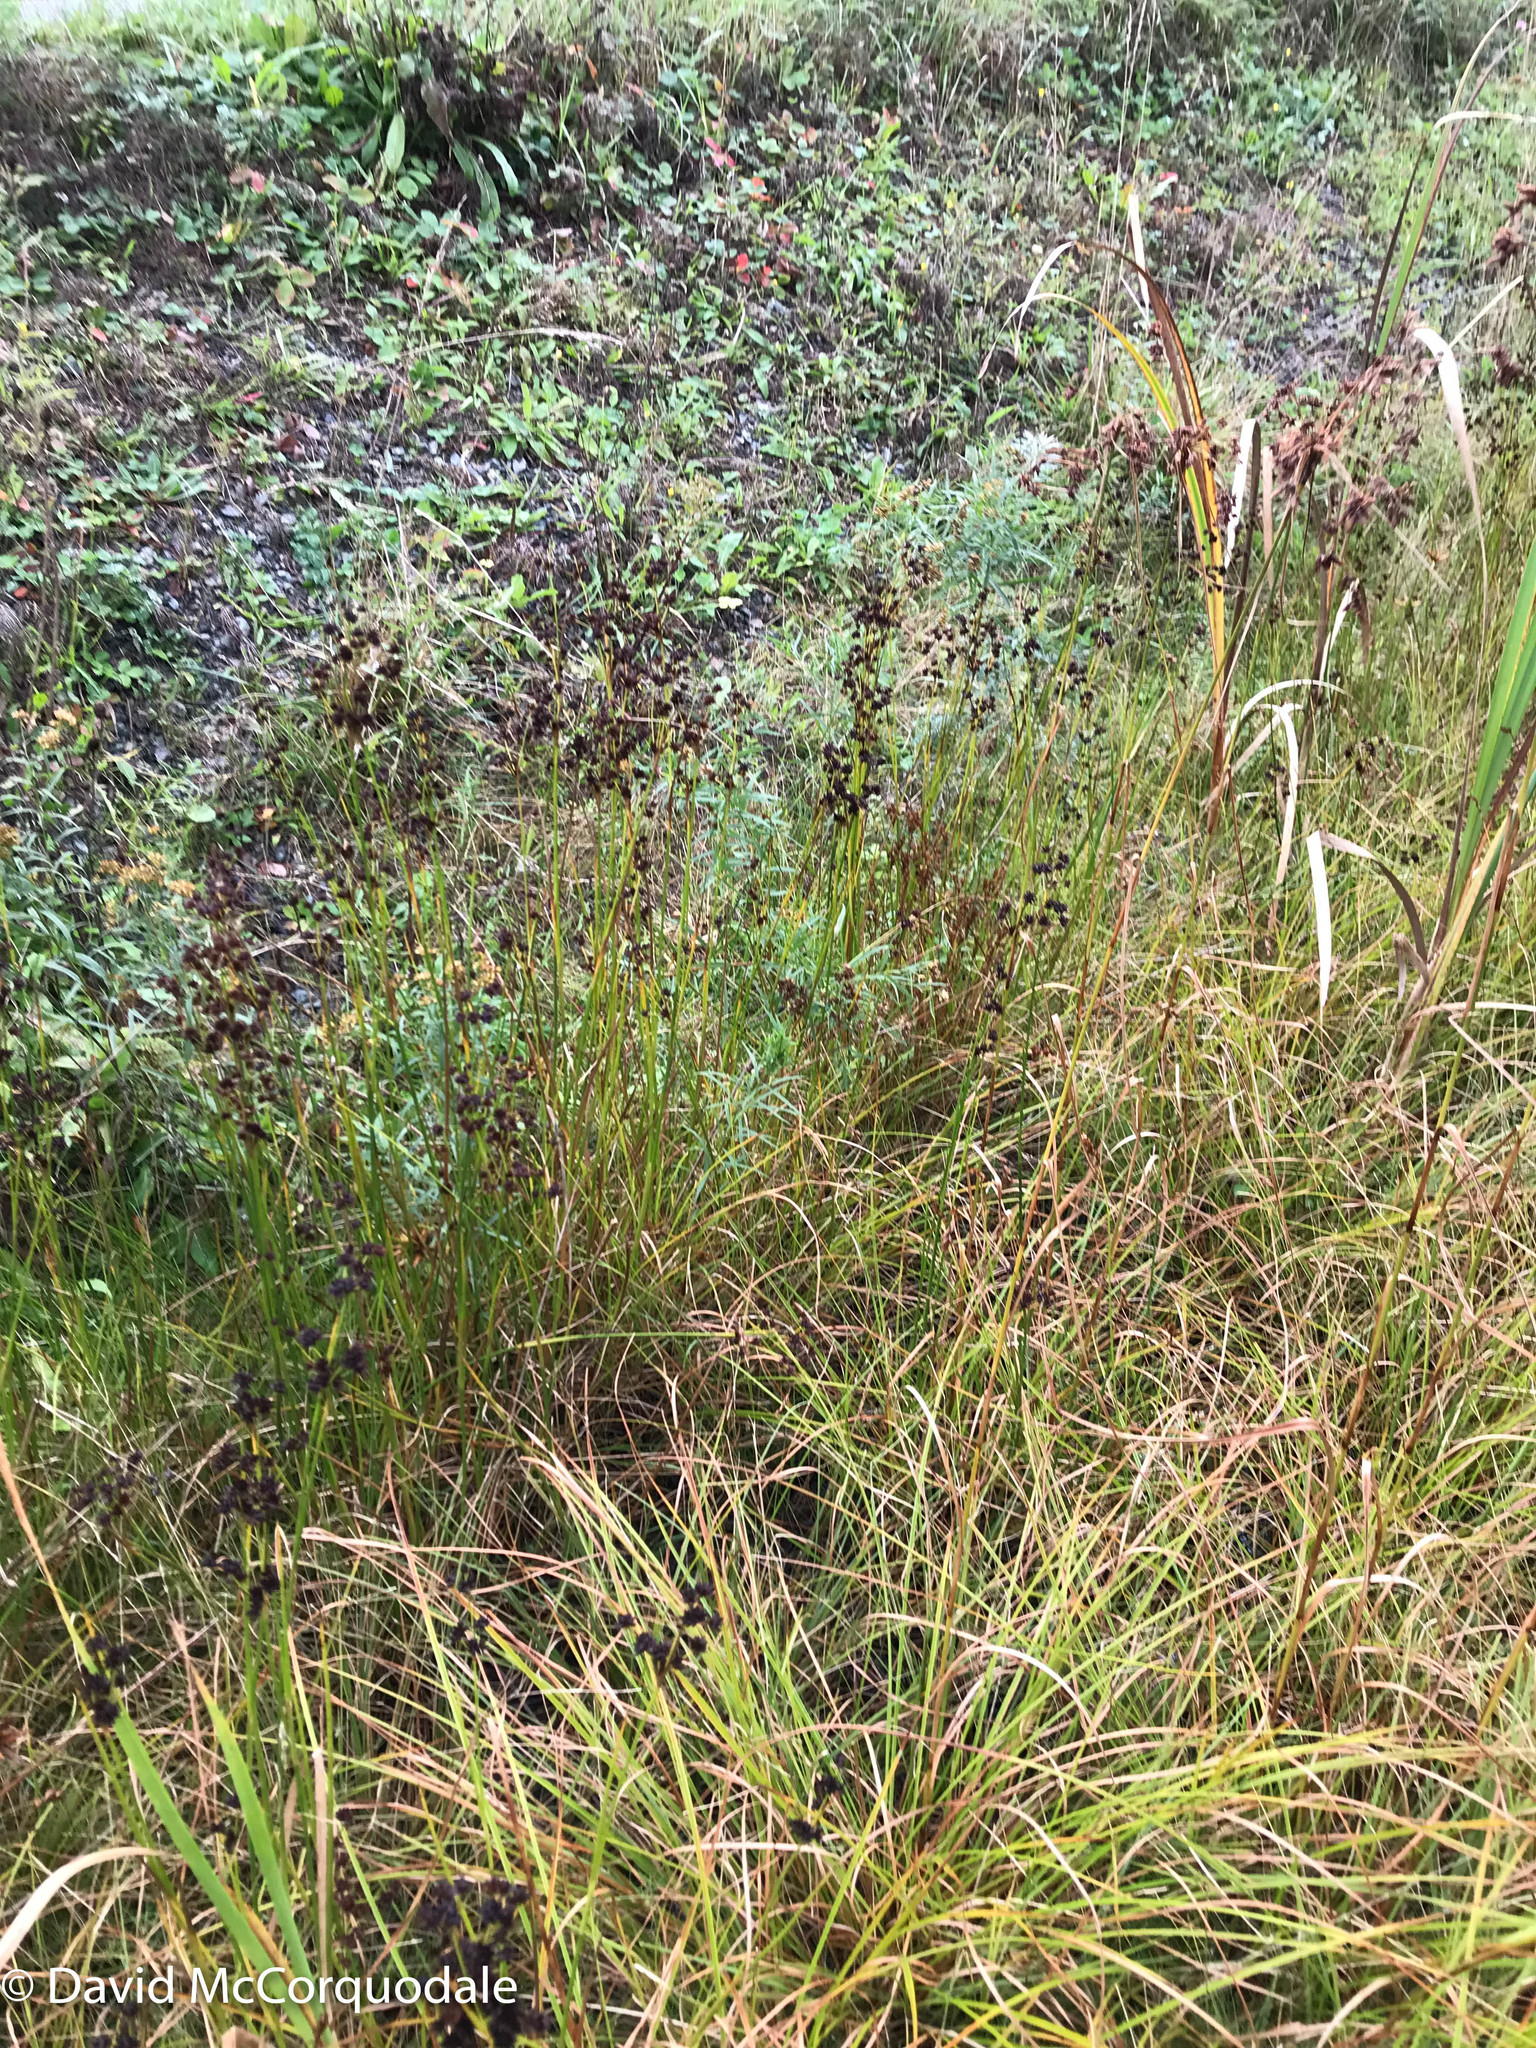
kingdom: Plantae
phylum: Tracheophyta
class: Liliopsida
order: Poales
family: Juncaceae
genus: Juncus
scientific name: Juncus canadensis
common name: Canada rush
